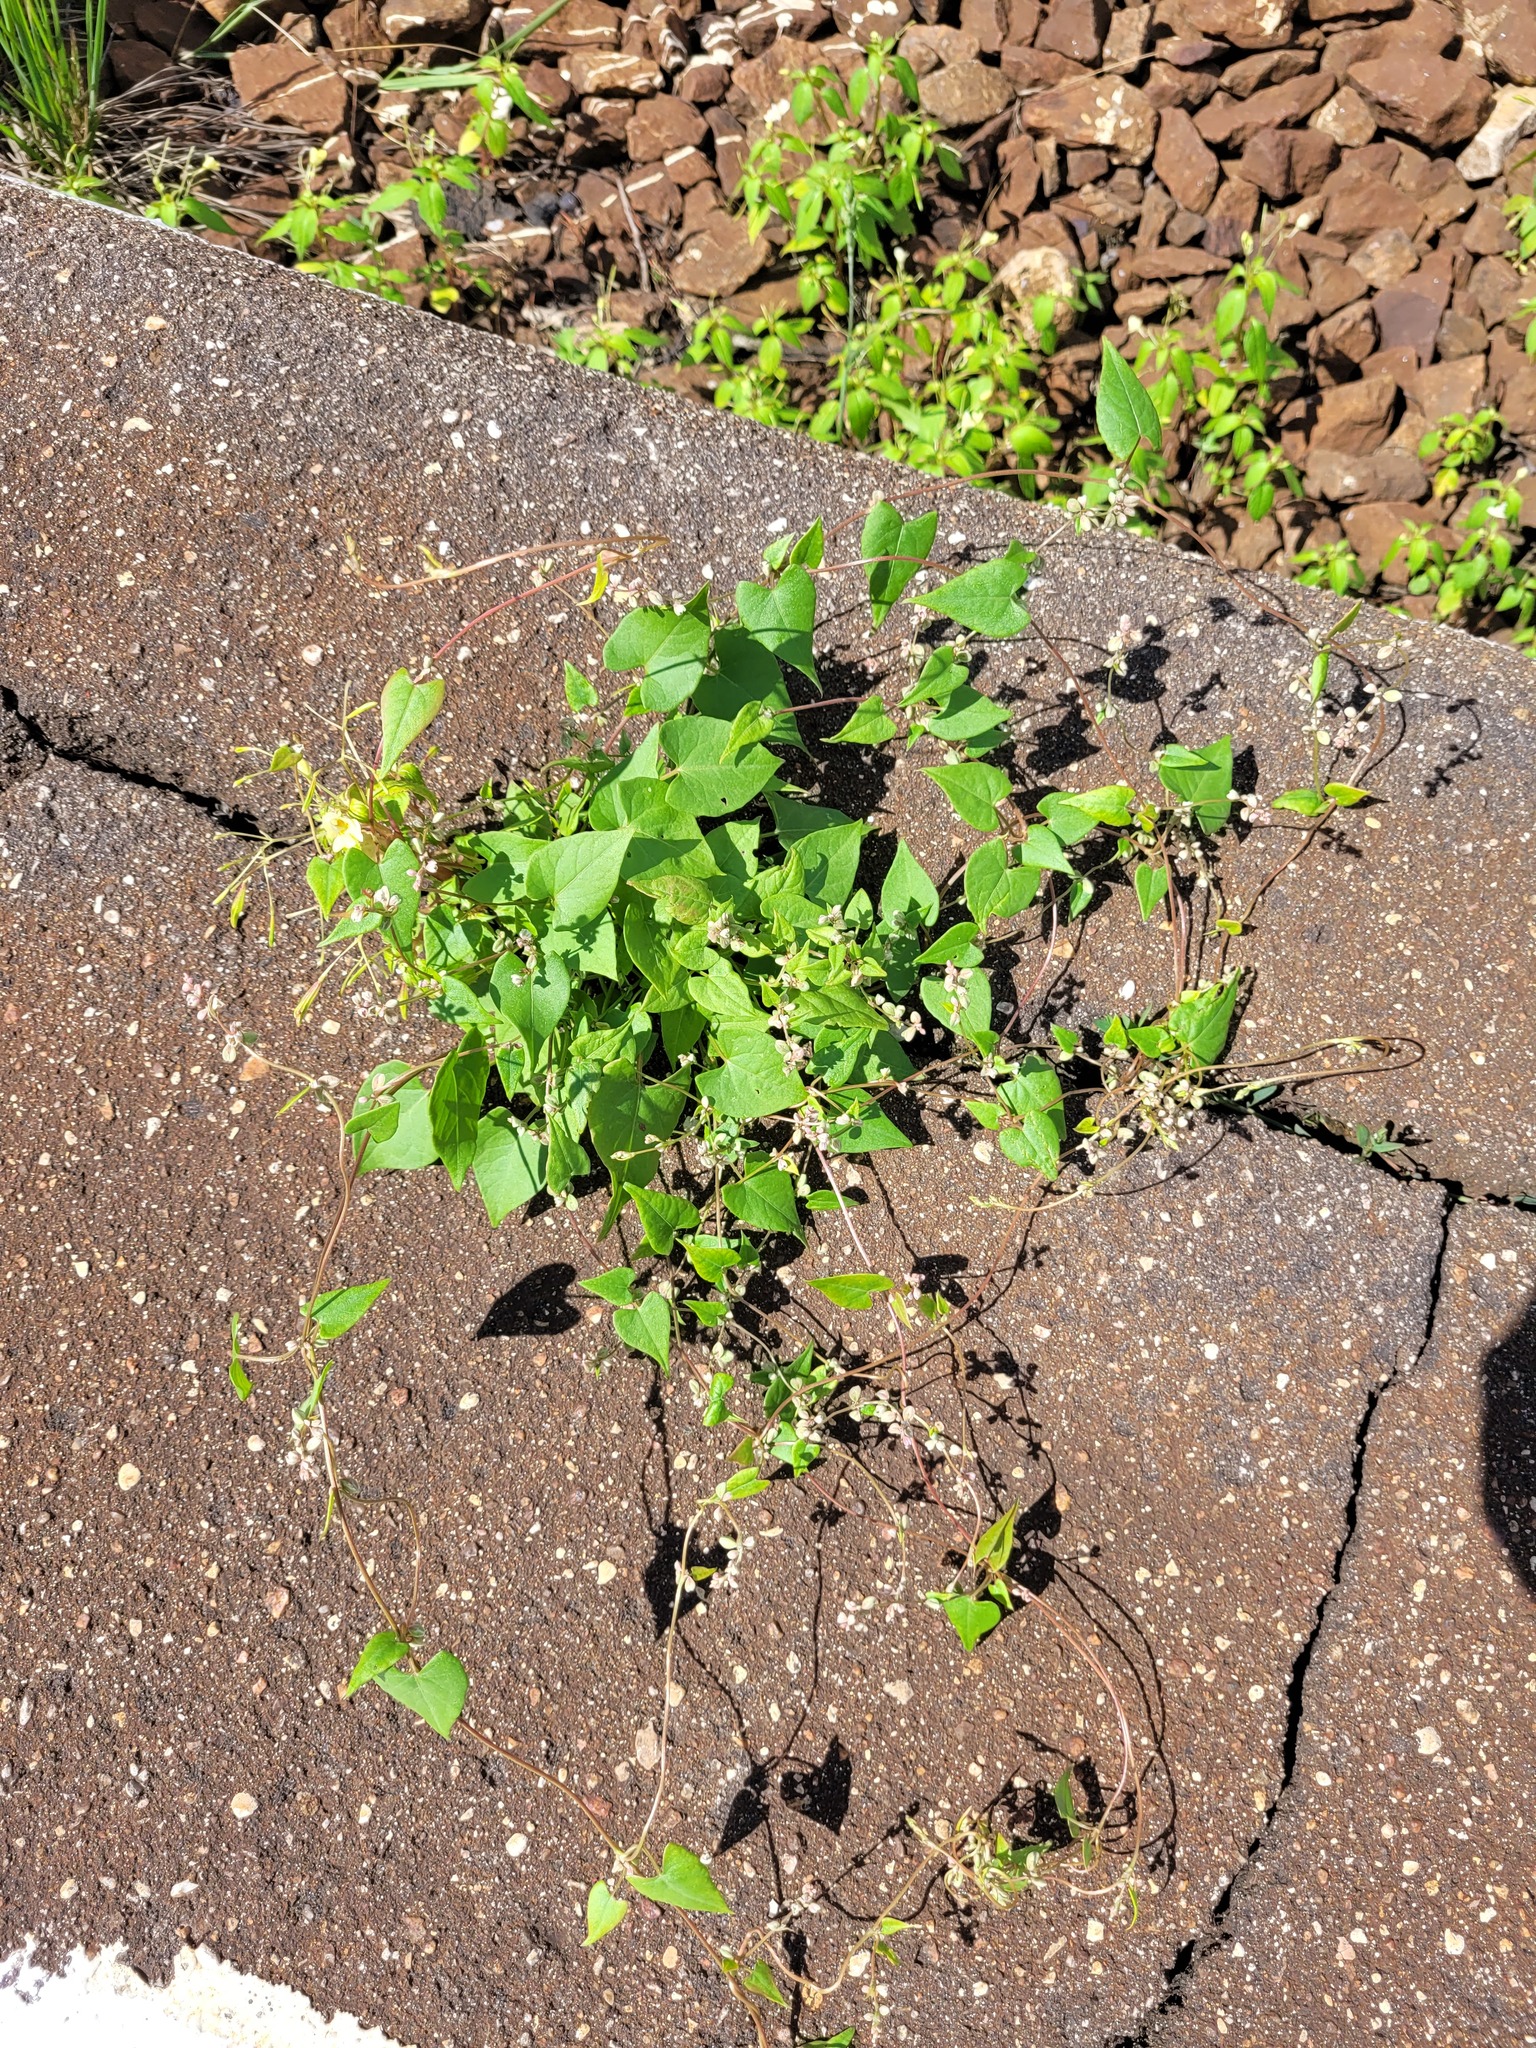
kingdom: Plantae
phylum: Tracheophyta
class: Magnoliopsida
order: Caryophyllales
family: Polygonaceae
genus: Fallopia
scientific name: Fallopia convolvulus
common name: Black bindweed
